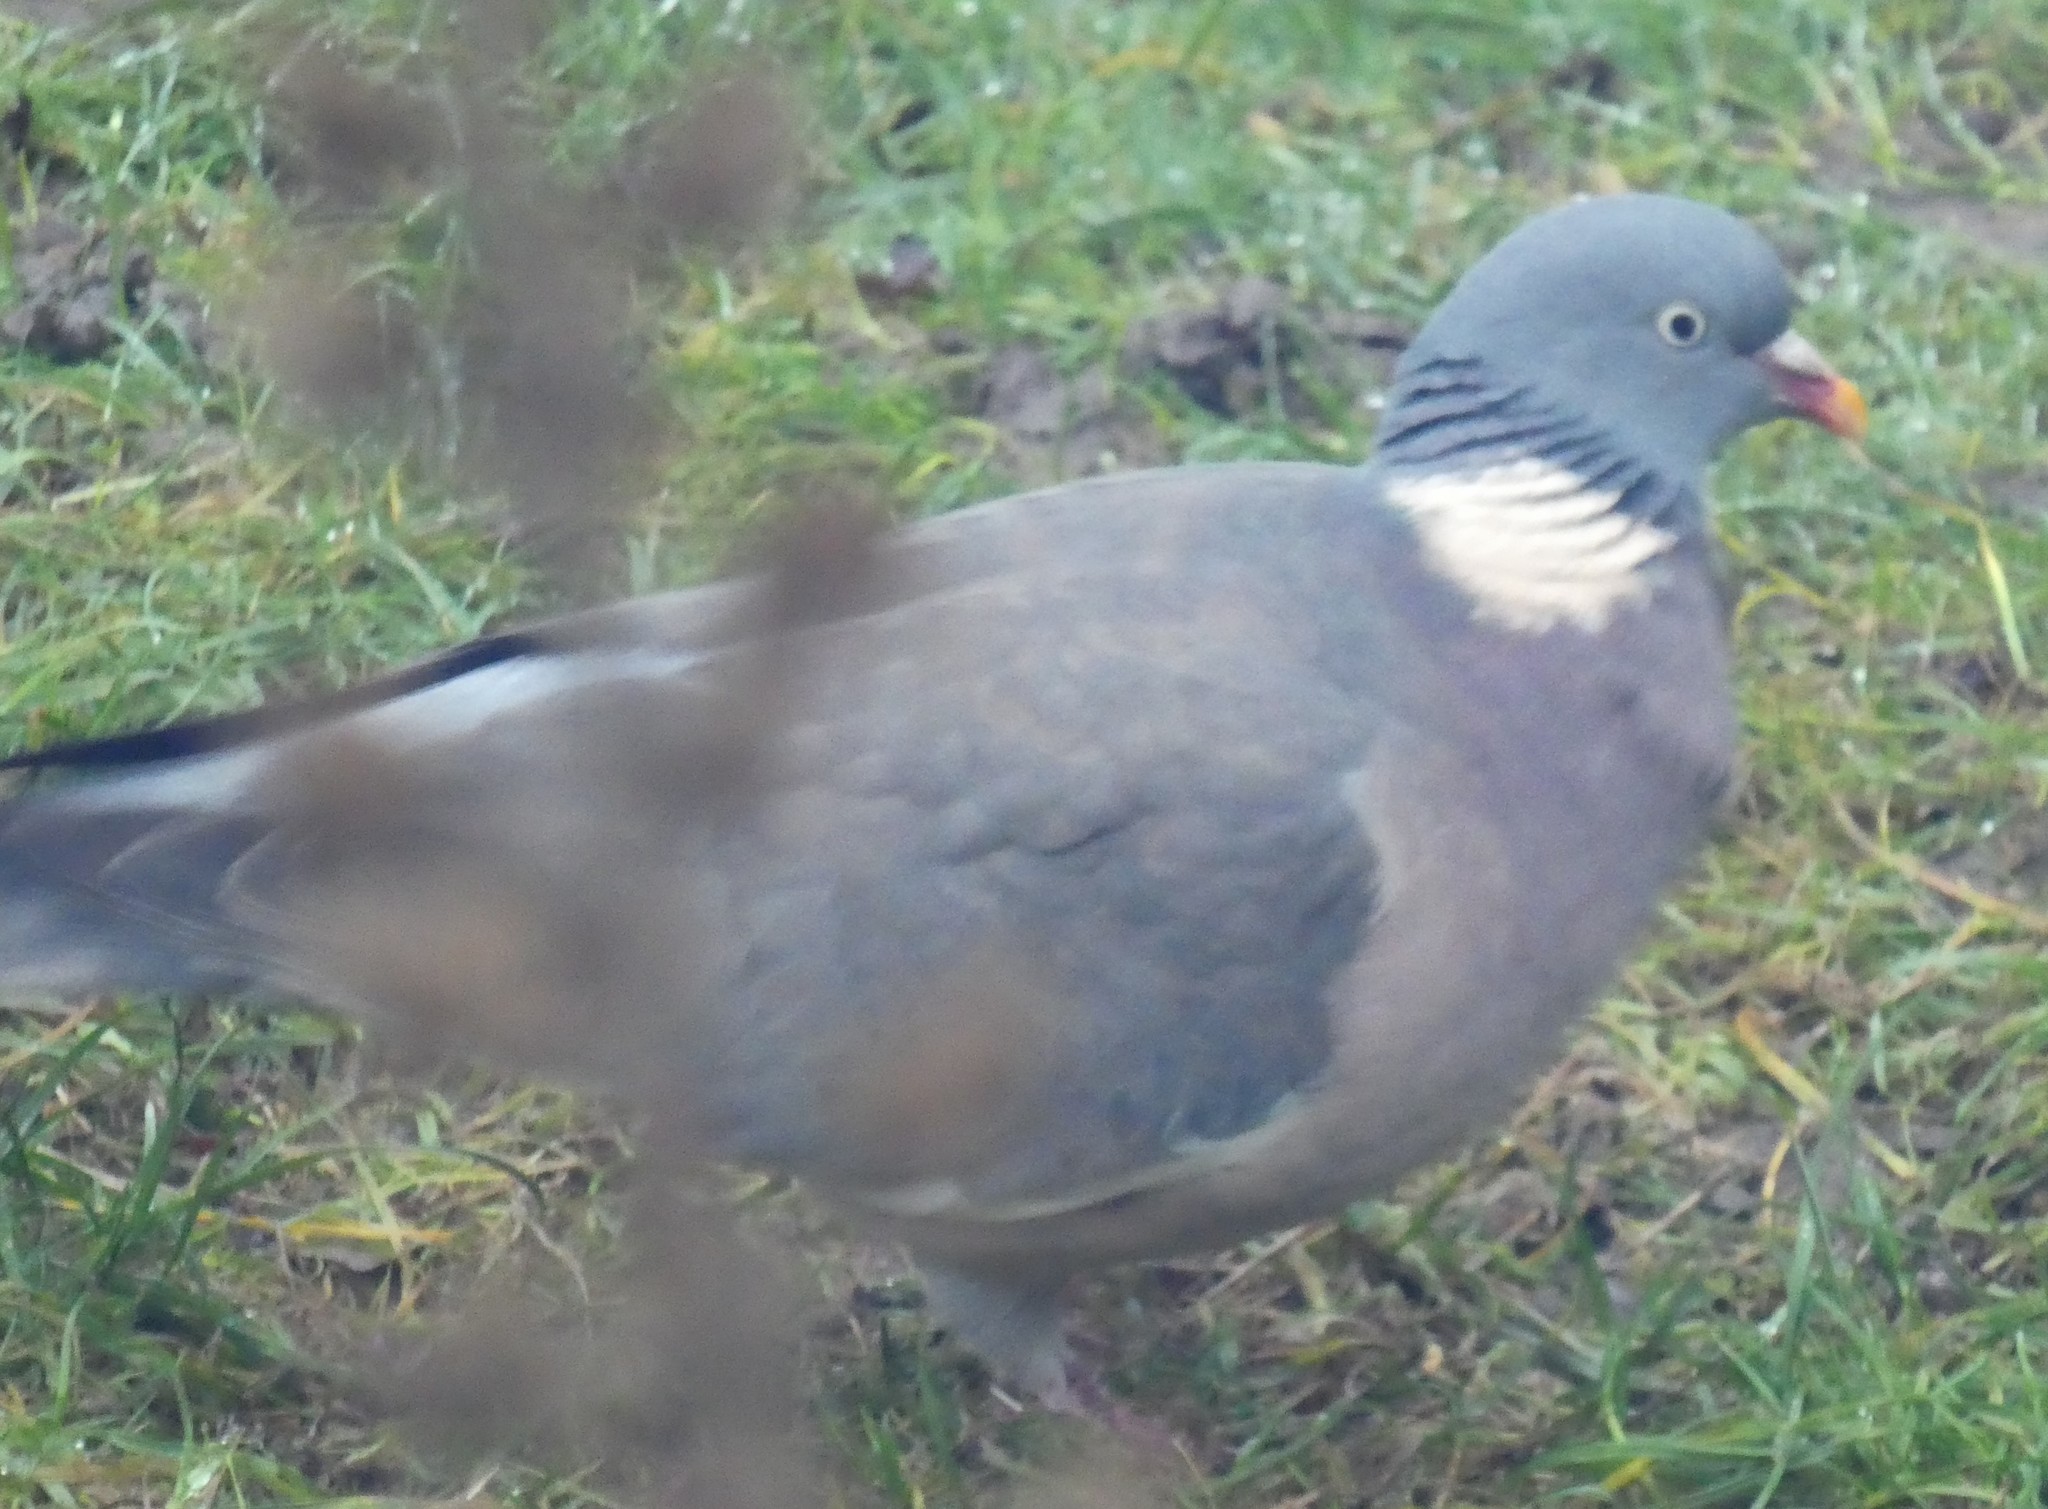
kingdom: Animalia
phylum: Chordata
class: Aves
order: Columbiformes
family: Columbidae
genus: Columba
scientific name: Columba palumbus
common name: Common wood pigeon
